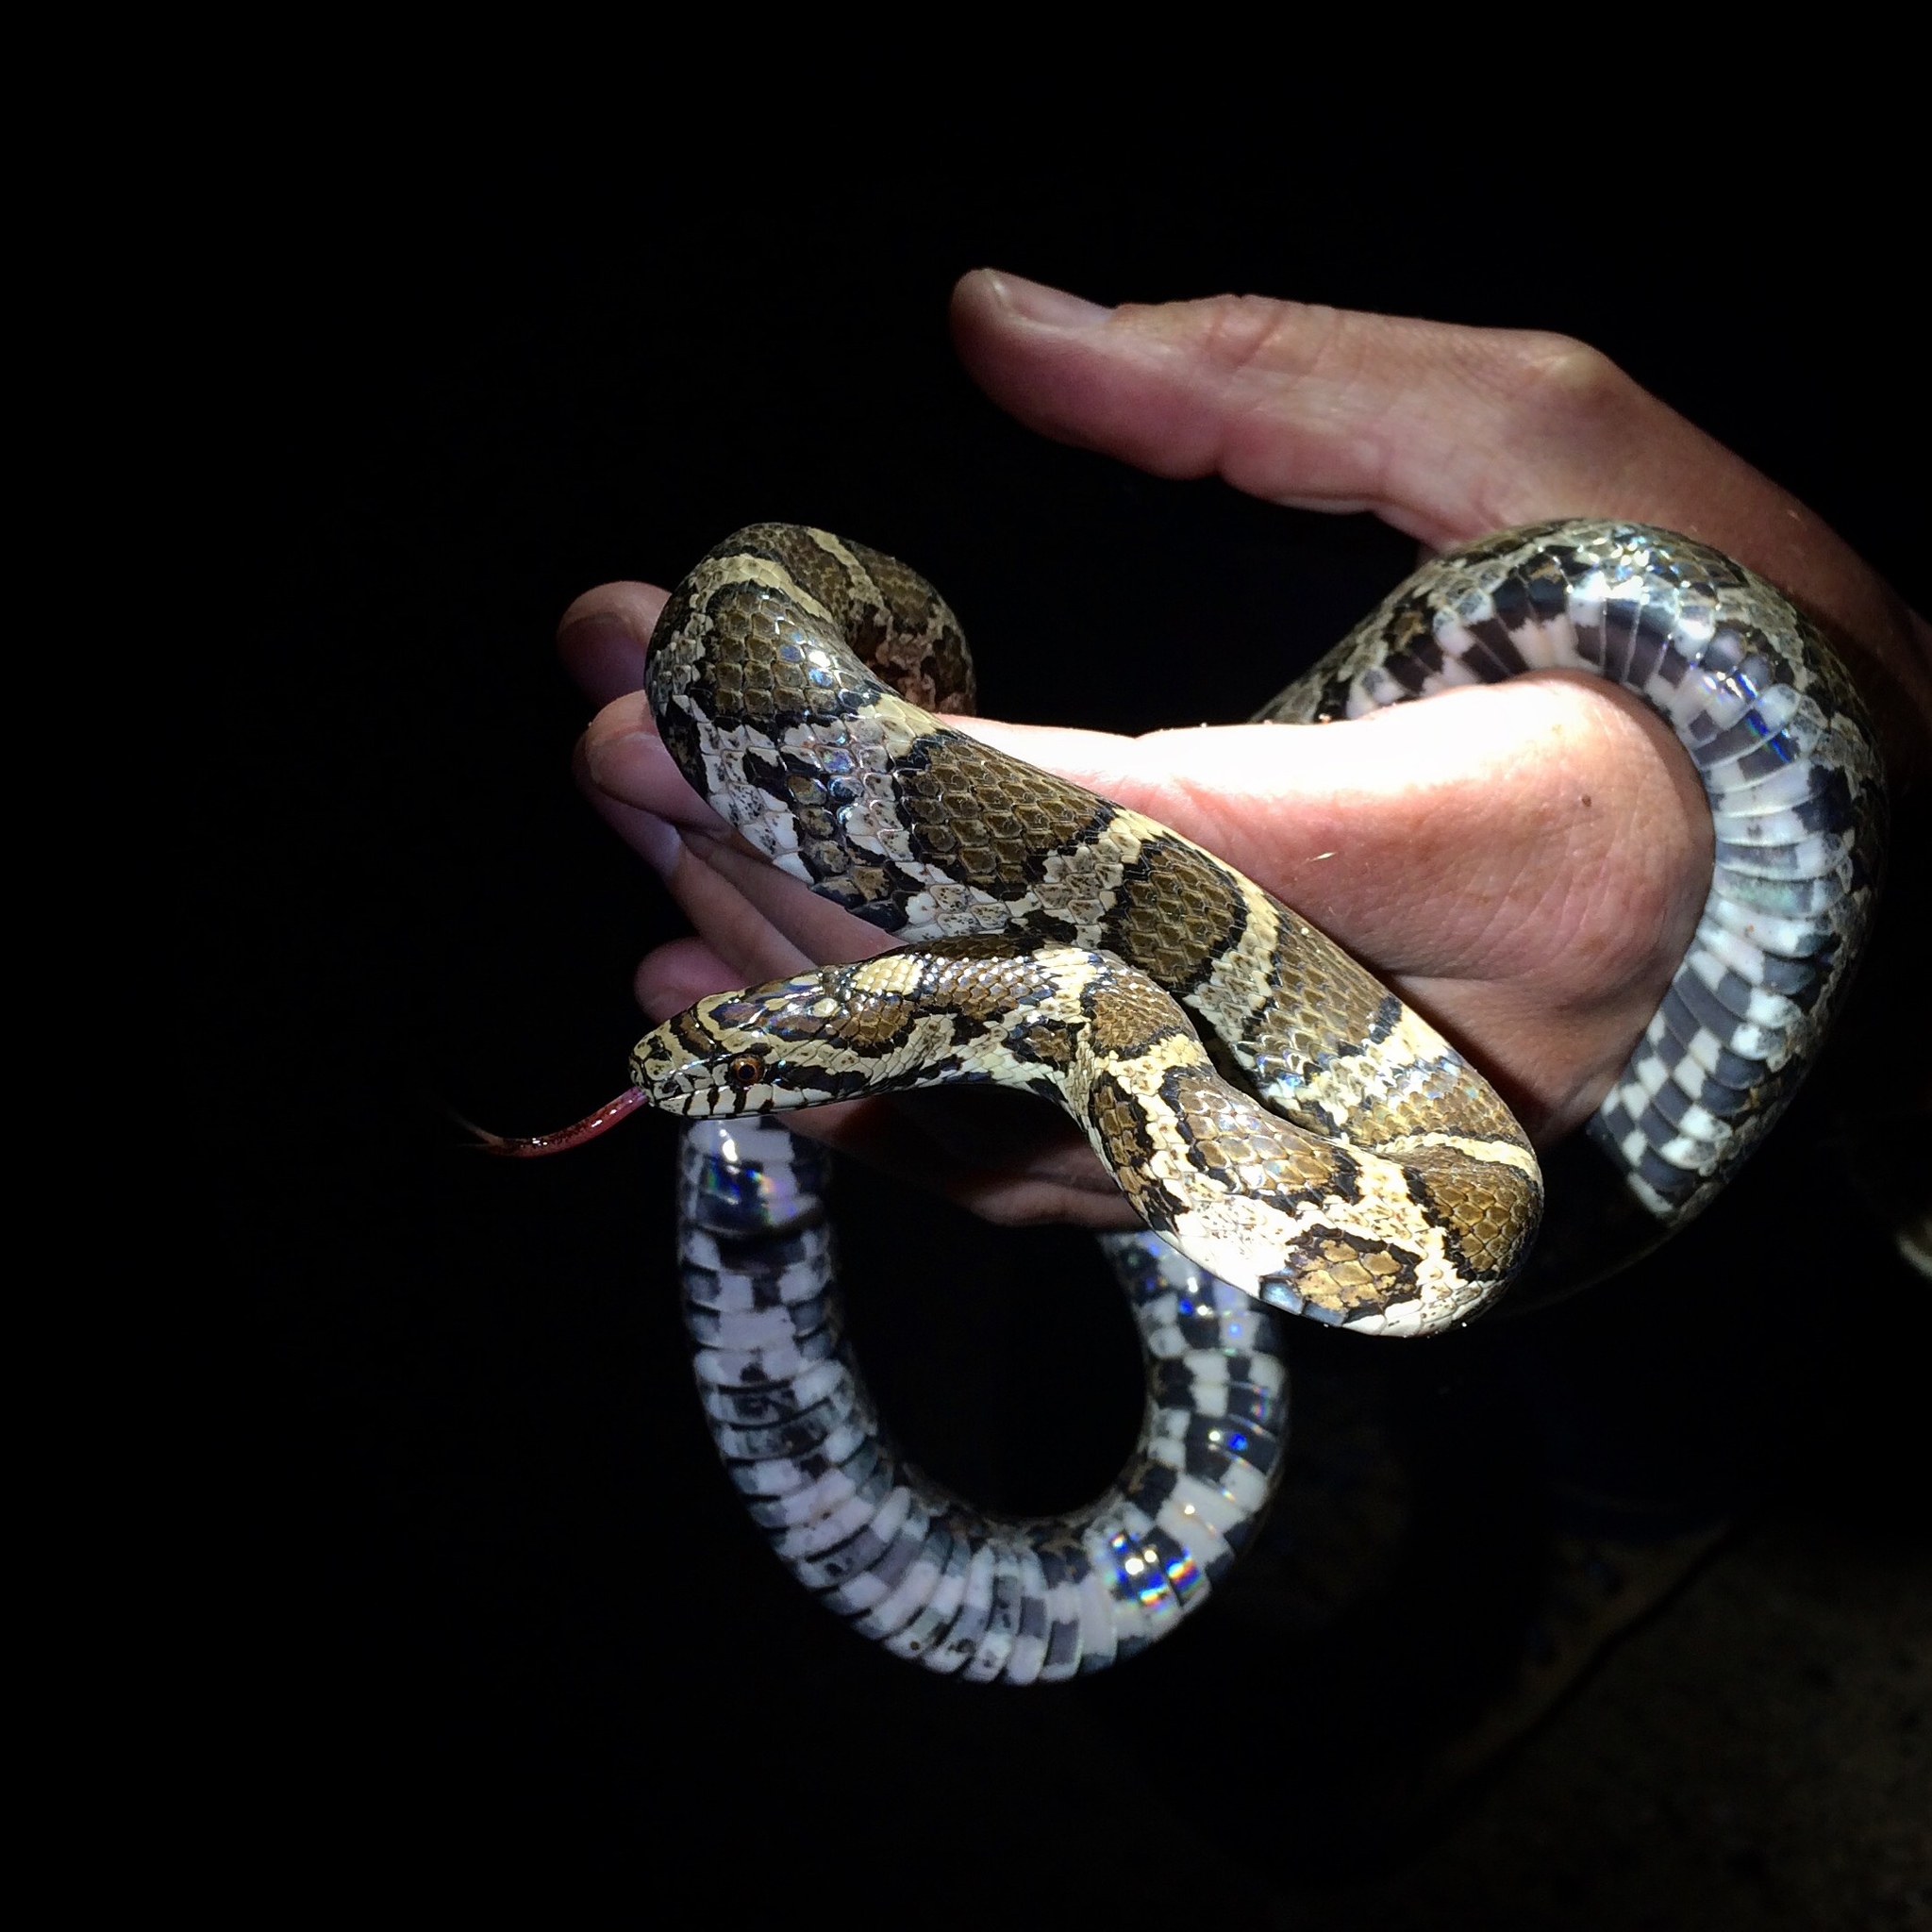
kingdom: Animalia
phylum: Chordata
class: Squamata
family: Colubridae
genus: Lampropeltis
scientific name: Lampropeltis triangulum
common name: Eastern milksnake
